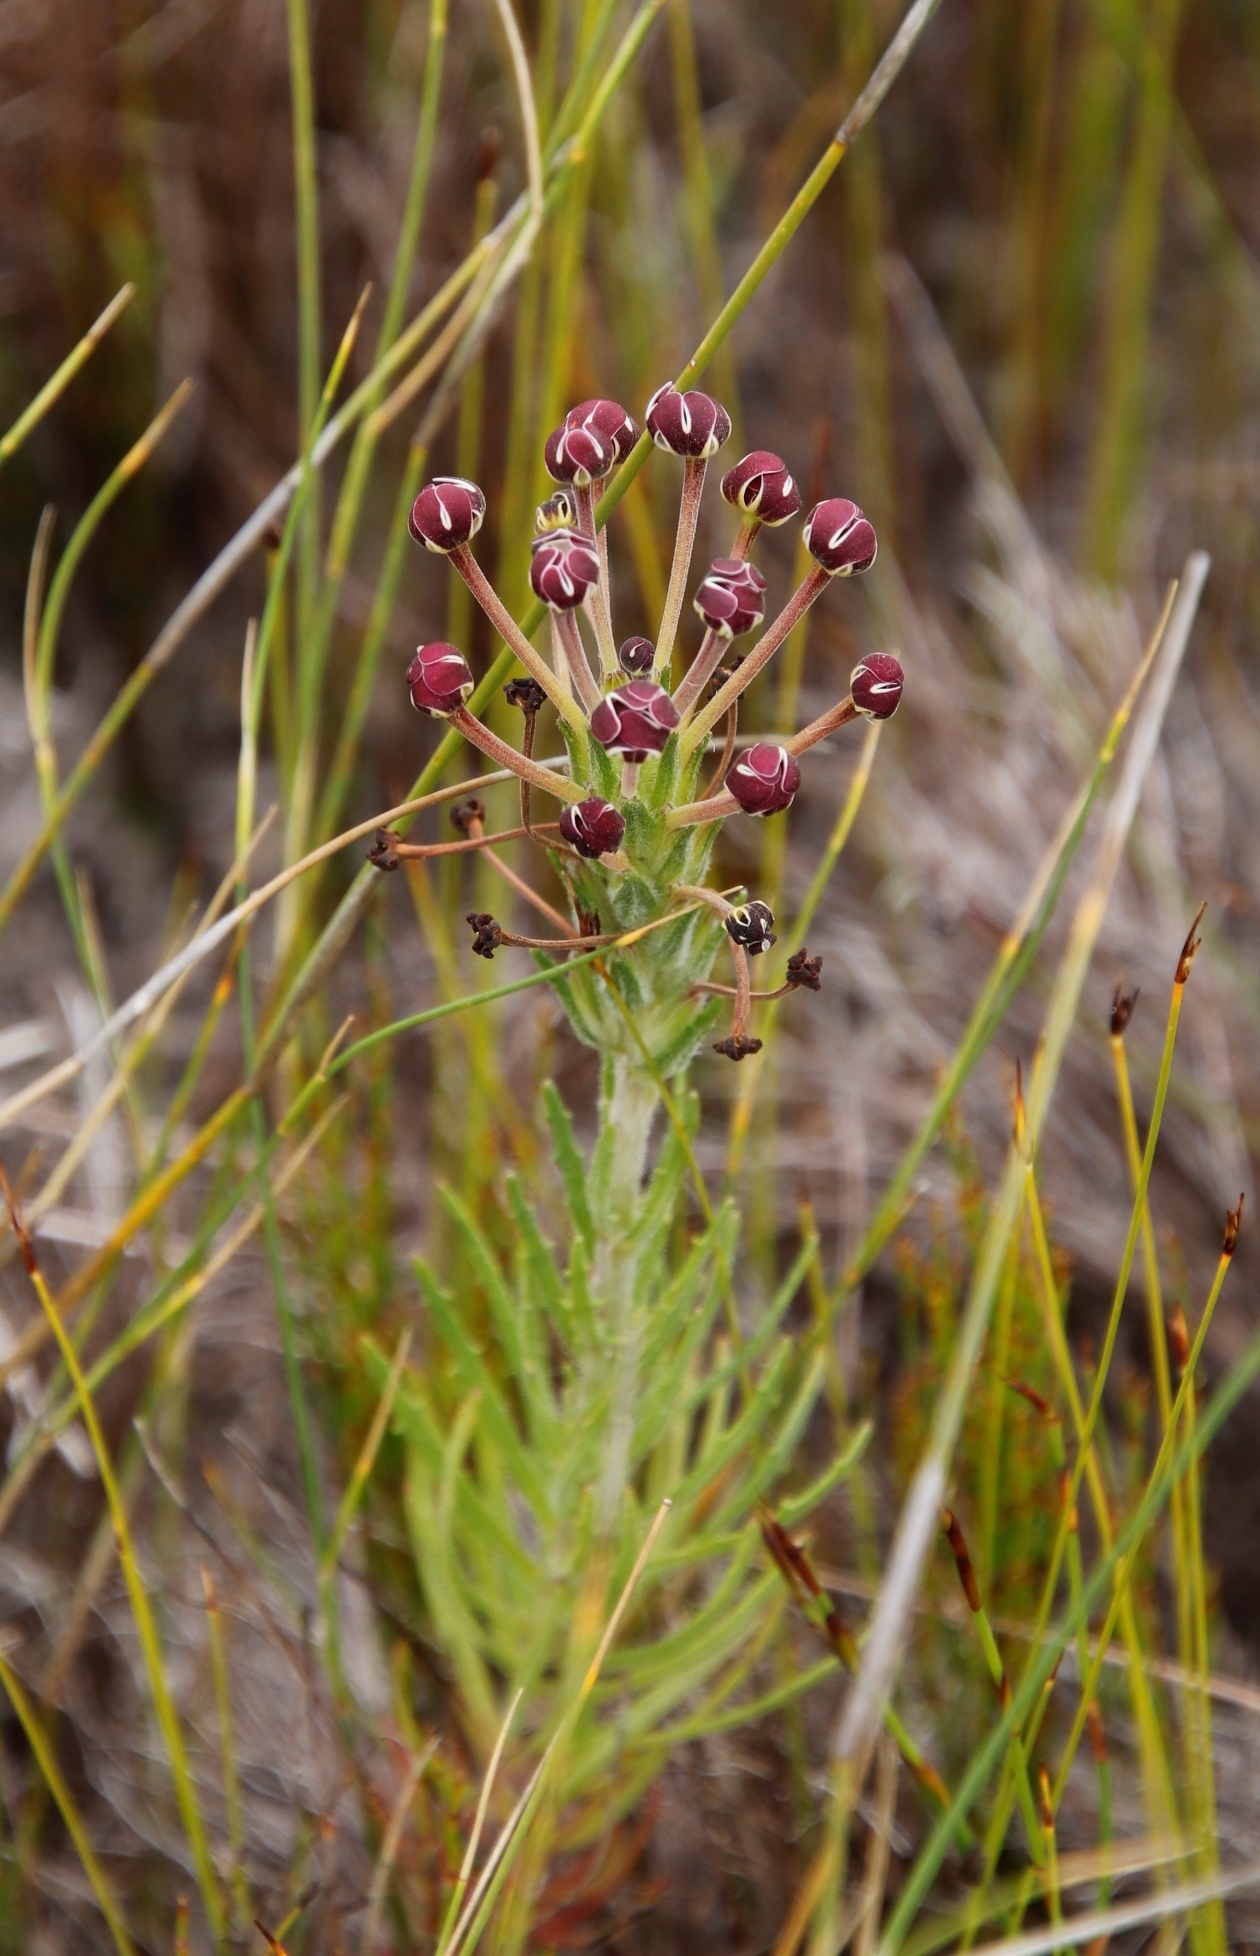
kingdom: Plantae
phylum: Tracheophyta
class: Magnoliopsida
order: Lamiales
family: Scrophulariaceae
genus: Zaluzianskya
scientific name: Zaluzianskya capensis
